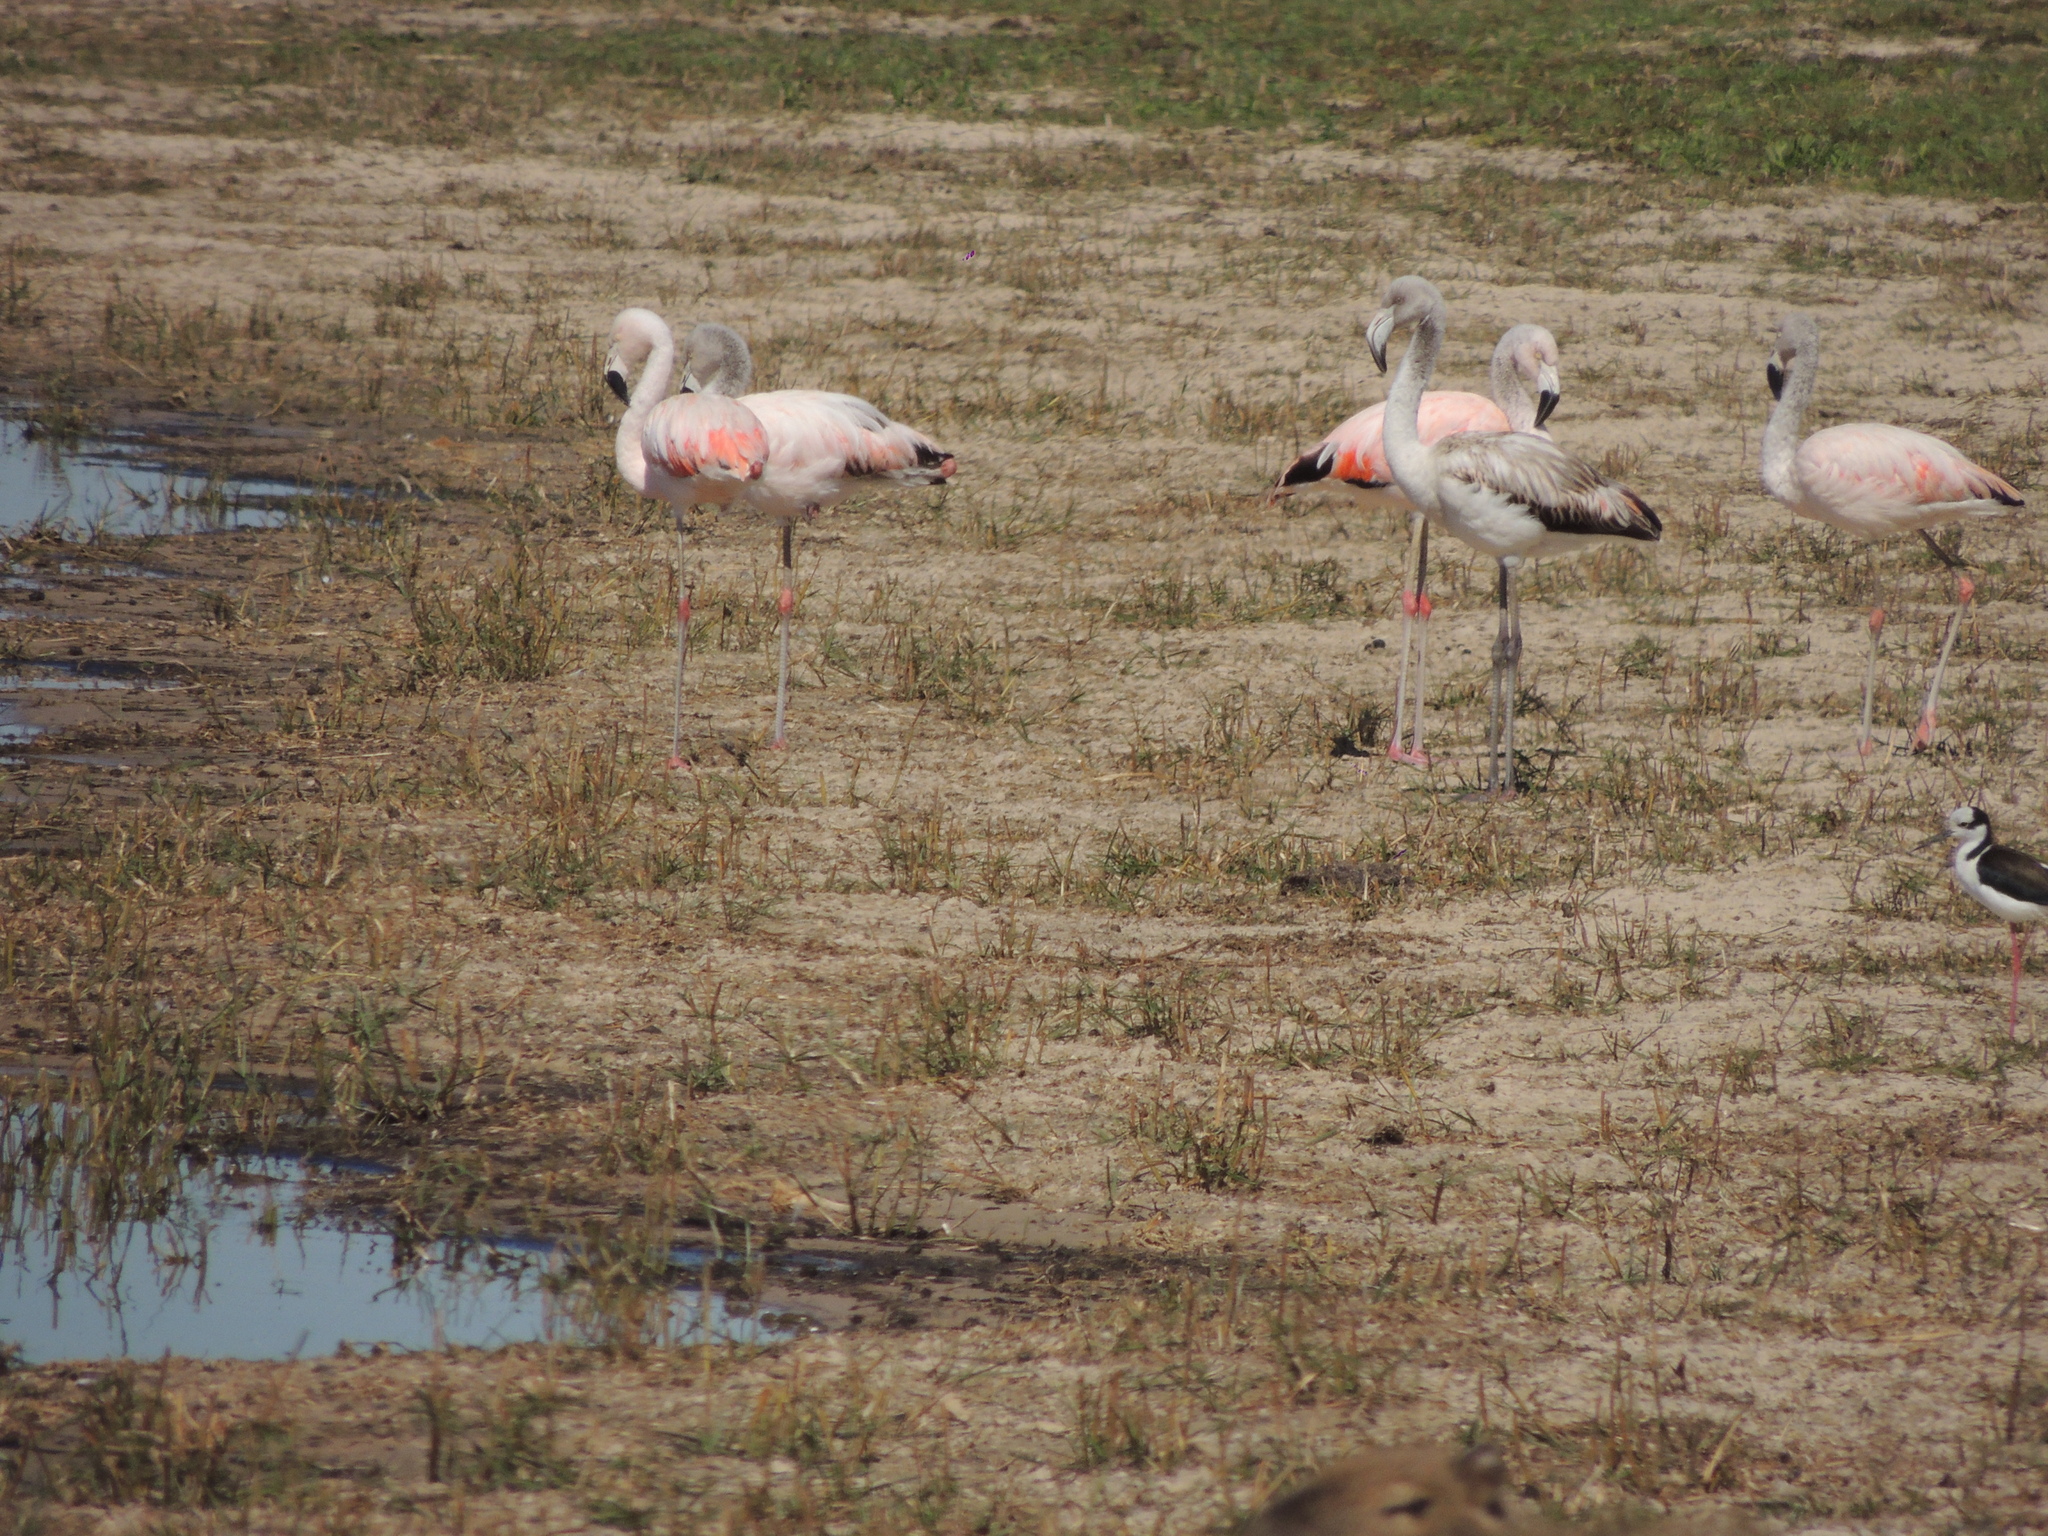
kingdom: Animalia
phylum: Chordata
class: Aves
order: Phoenicopteriformes
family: Phoenicopteridae
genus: Phoenicopterus
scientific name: Phoenicopterus chilensis
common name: Chilean flamingo
